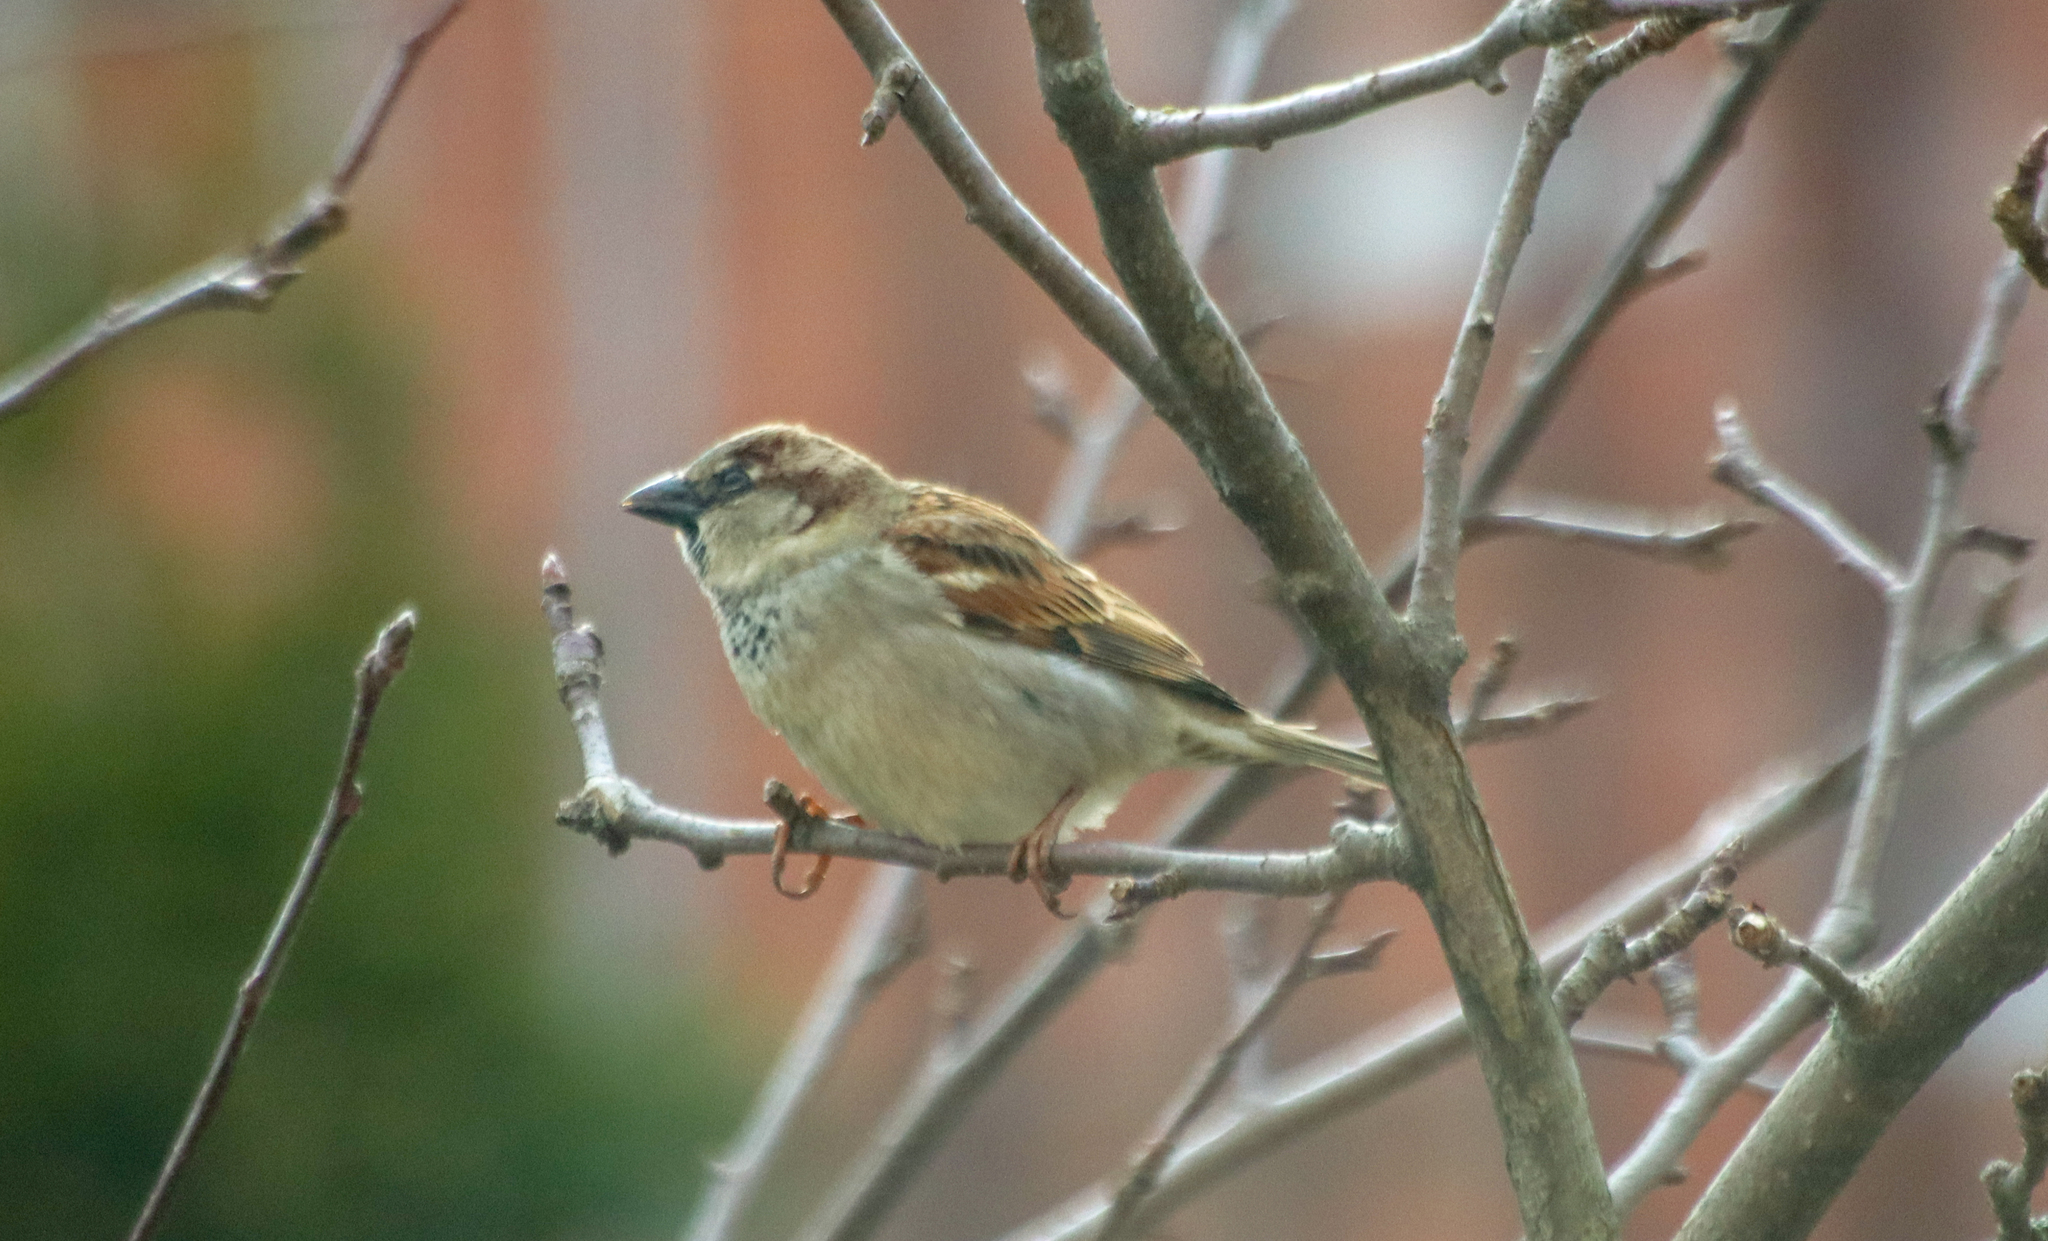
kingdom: Animalia
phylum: Chordata
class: Aves
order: Passeriformes
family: Passeridae
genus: Passer
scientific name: Passer domesticus
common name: House sparrow
